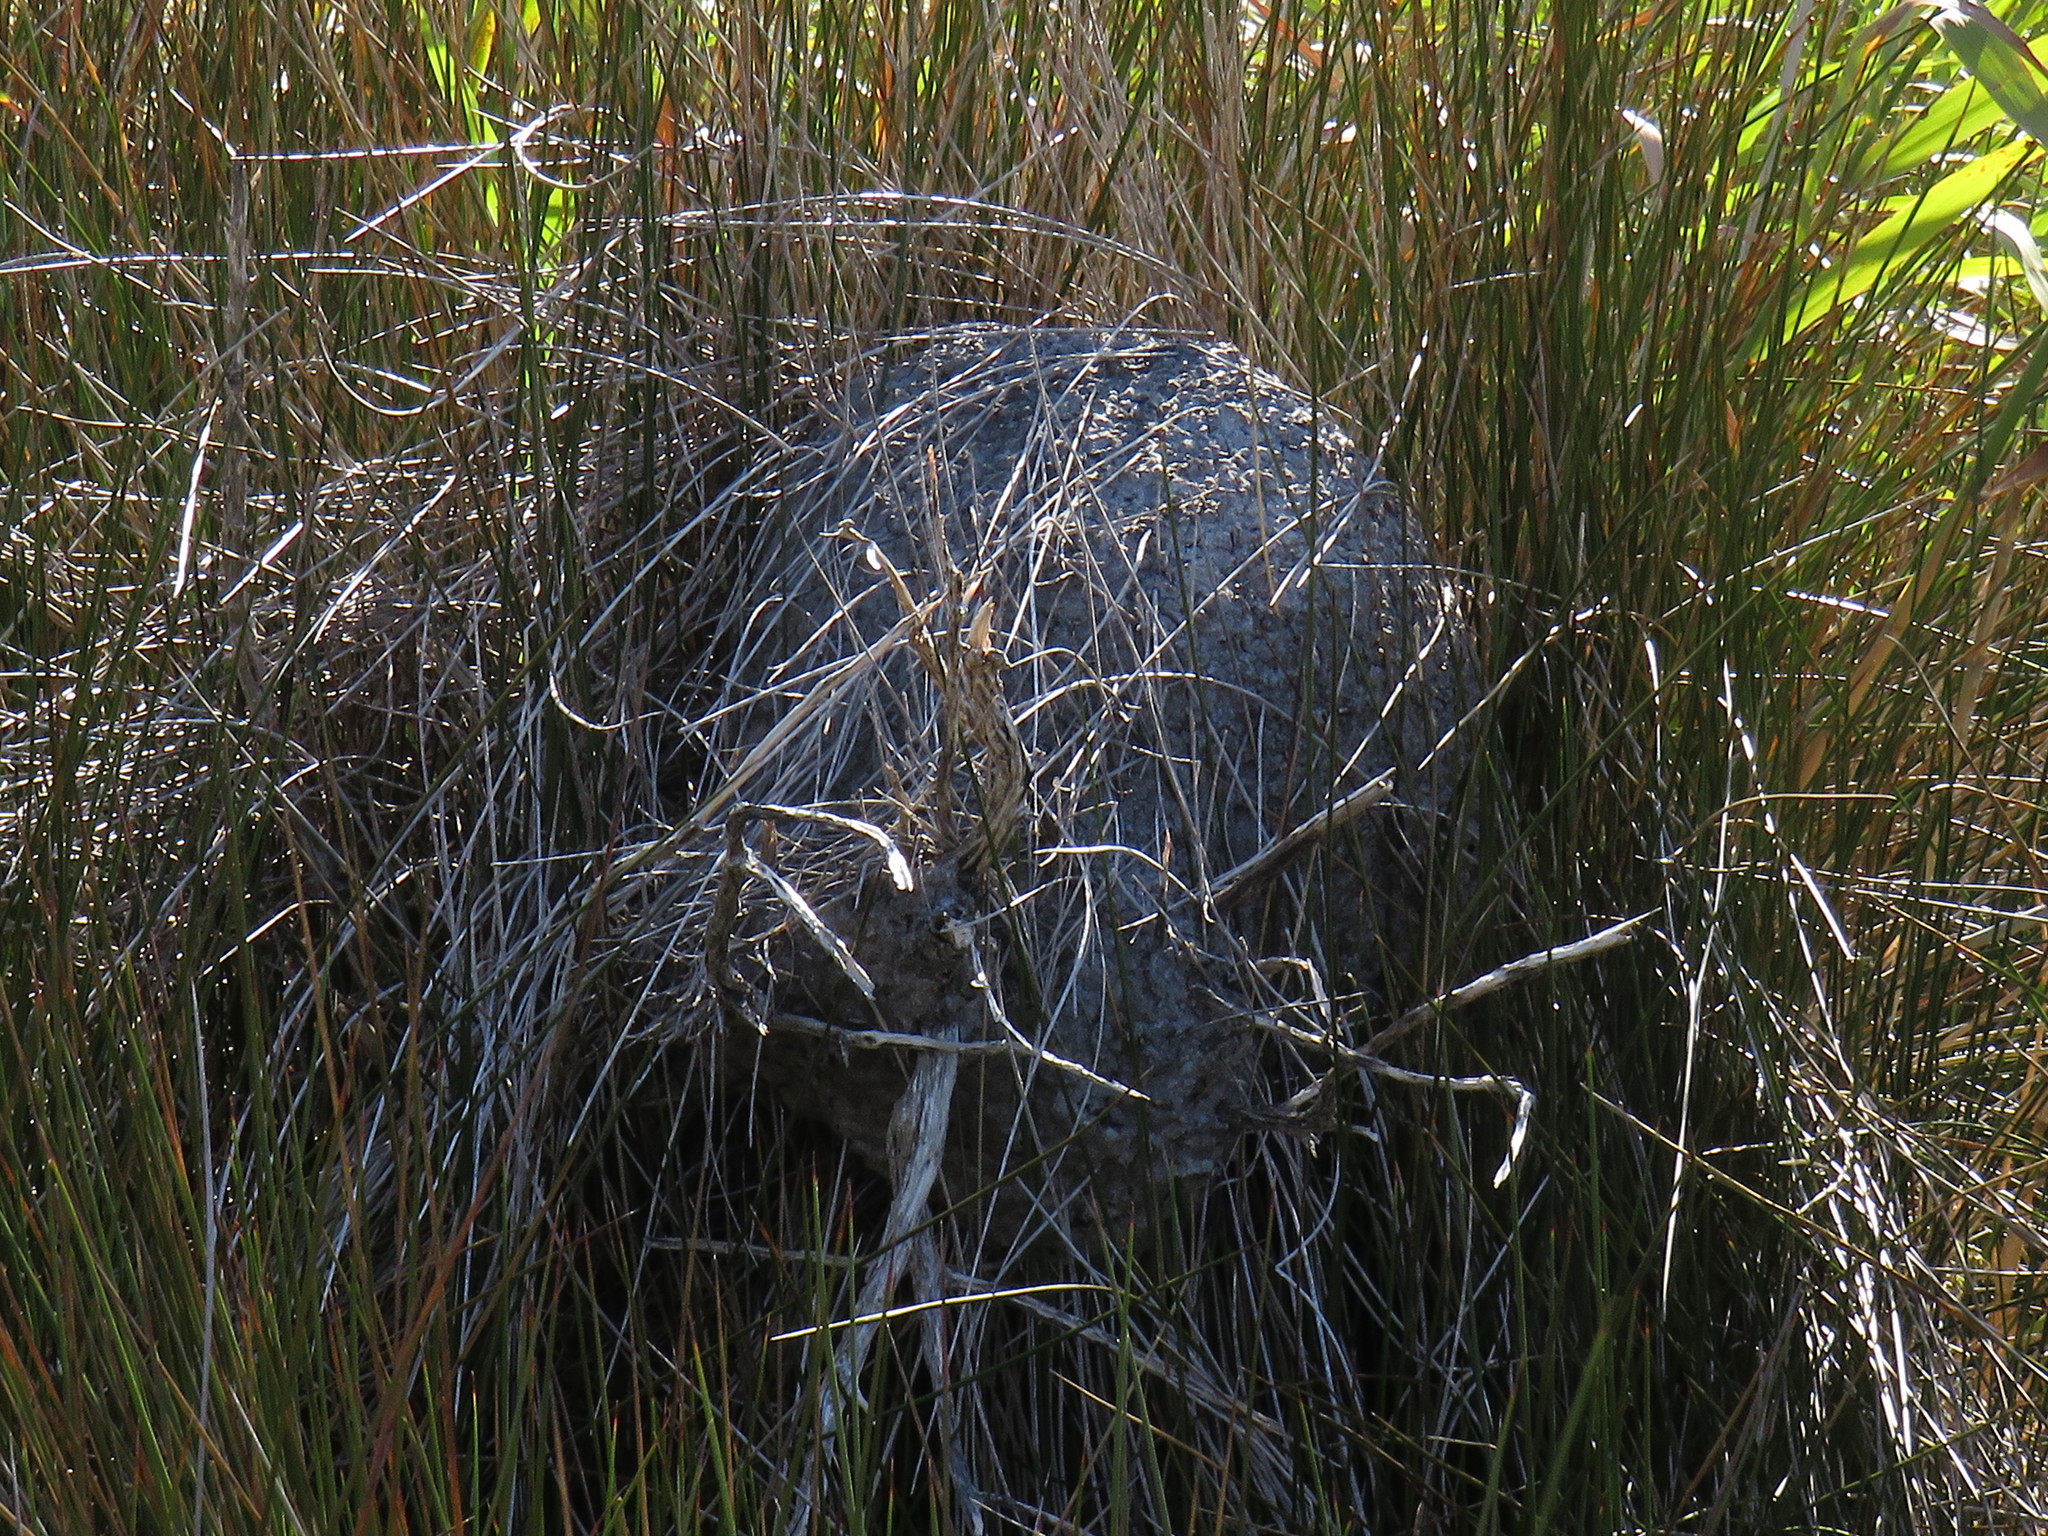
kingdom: Animalia
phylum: Arthropoda
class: Insecta
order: Hymenoptera
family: Formicidae
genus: Crematogaster
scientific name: Crematogaster peringueyi
